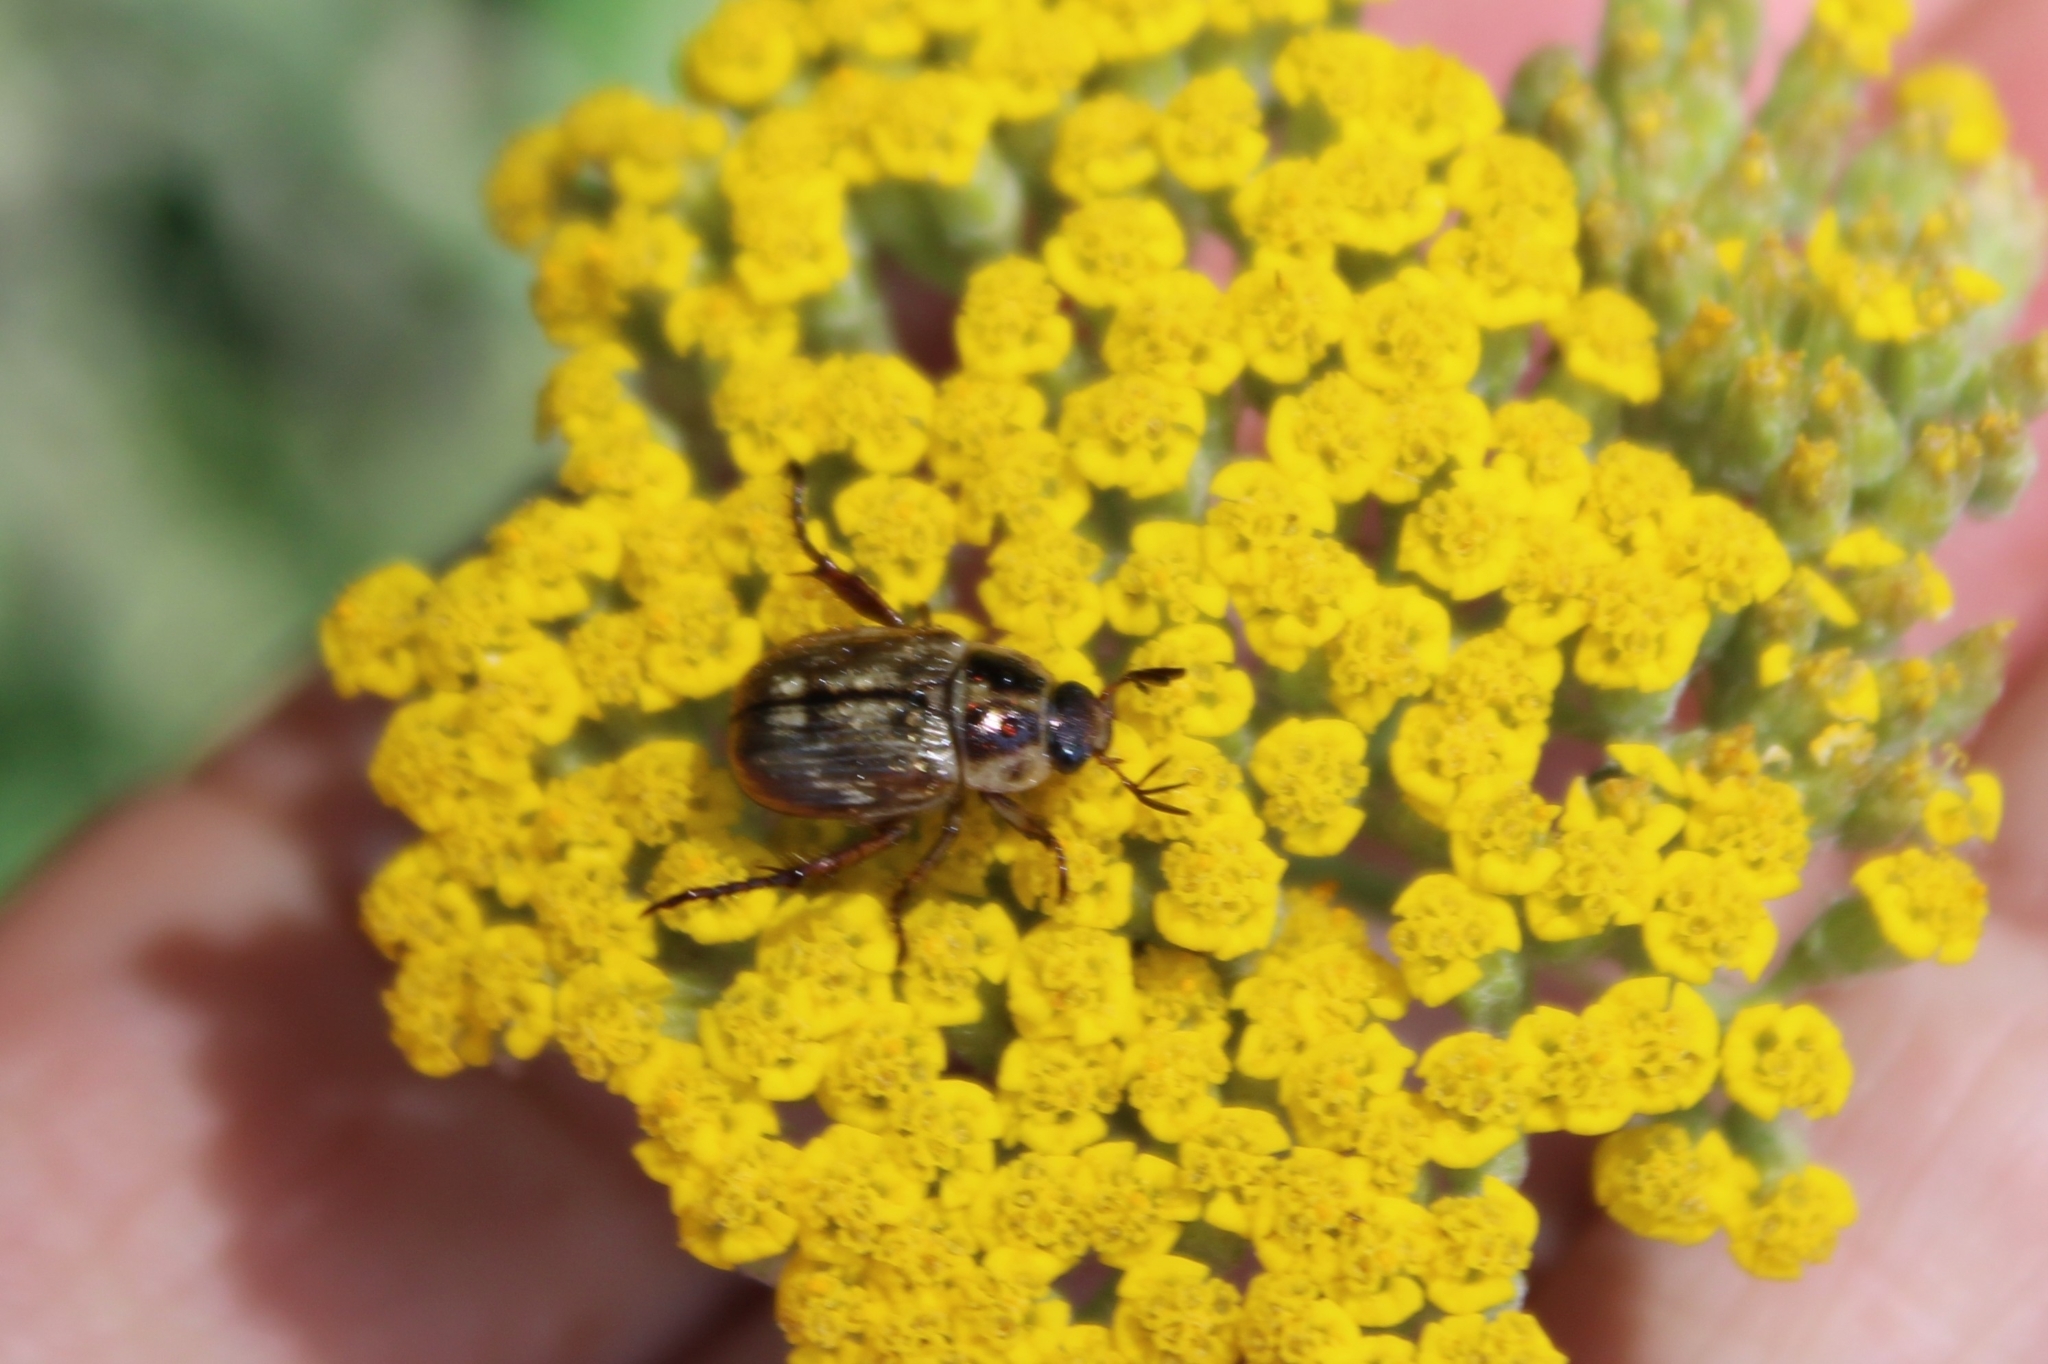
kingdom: Animalia
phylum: Arthropoda
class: Insecta
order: Coleoptera
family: Scarabaeidae
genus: Exomala
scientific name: Exomala orientalis
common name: Oriental beetle
